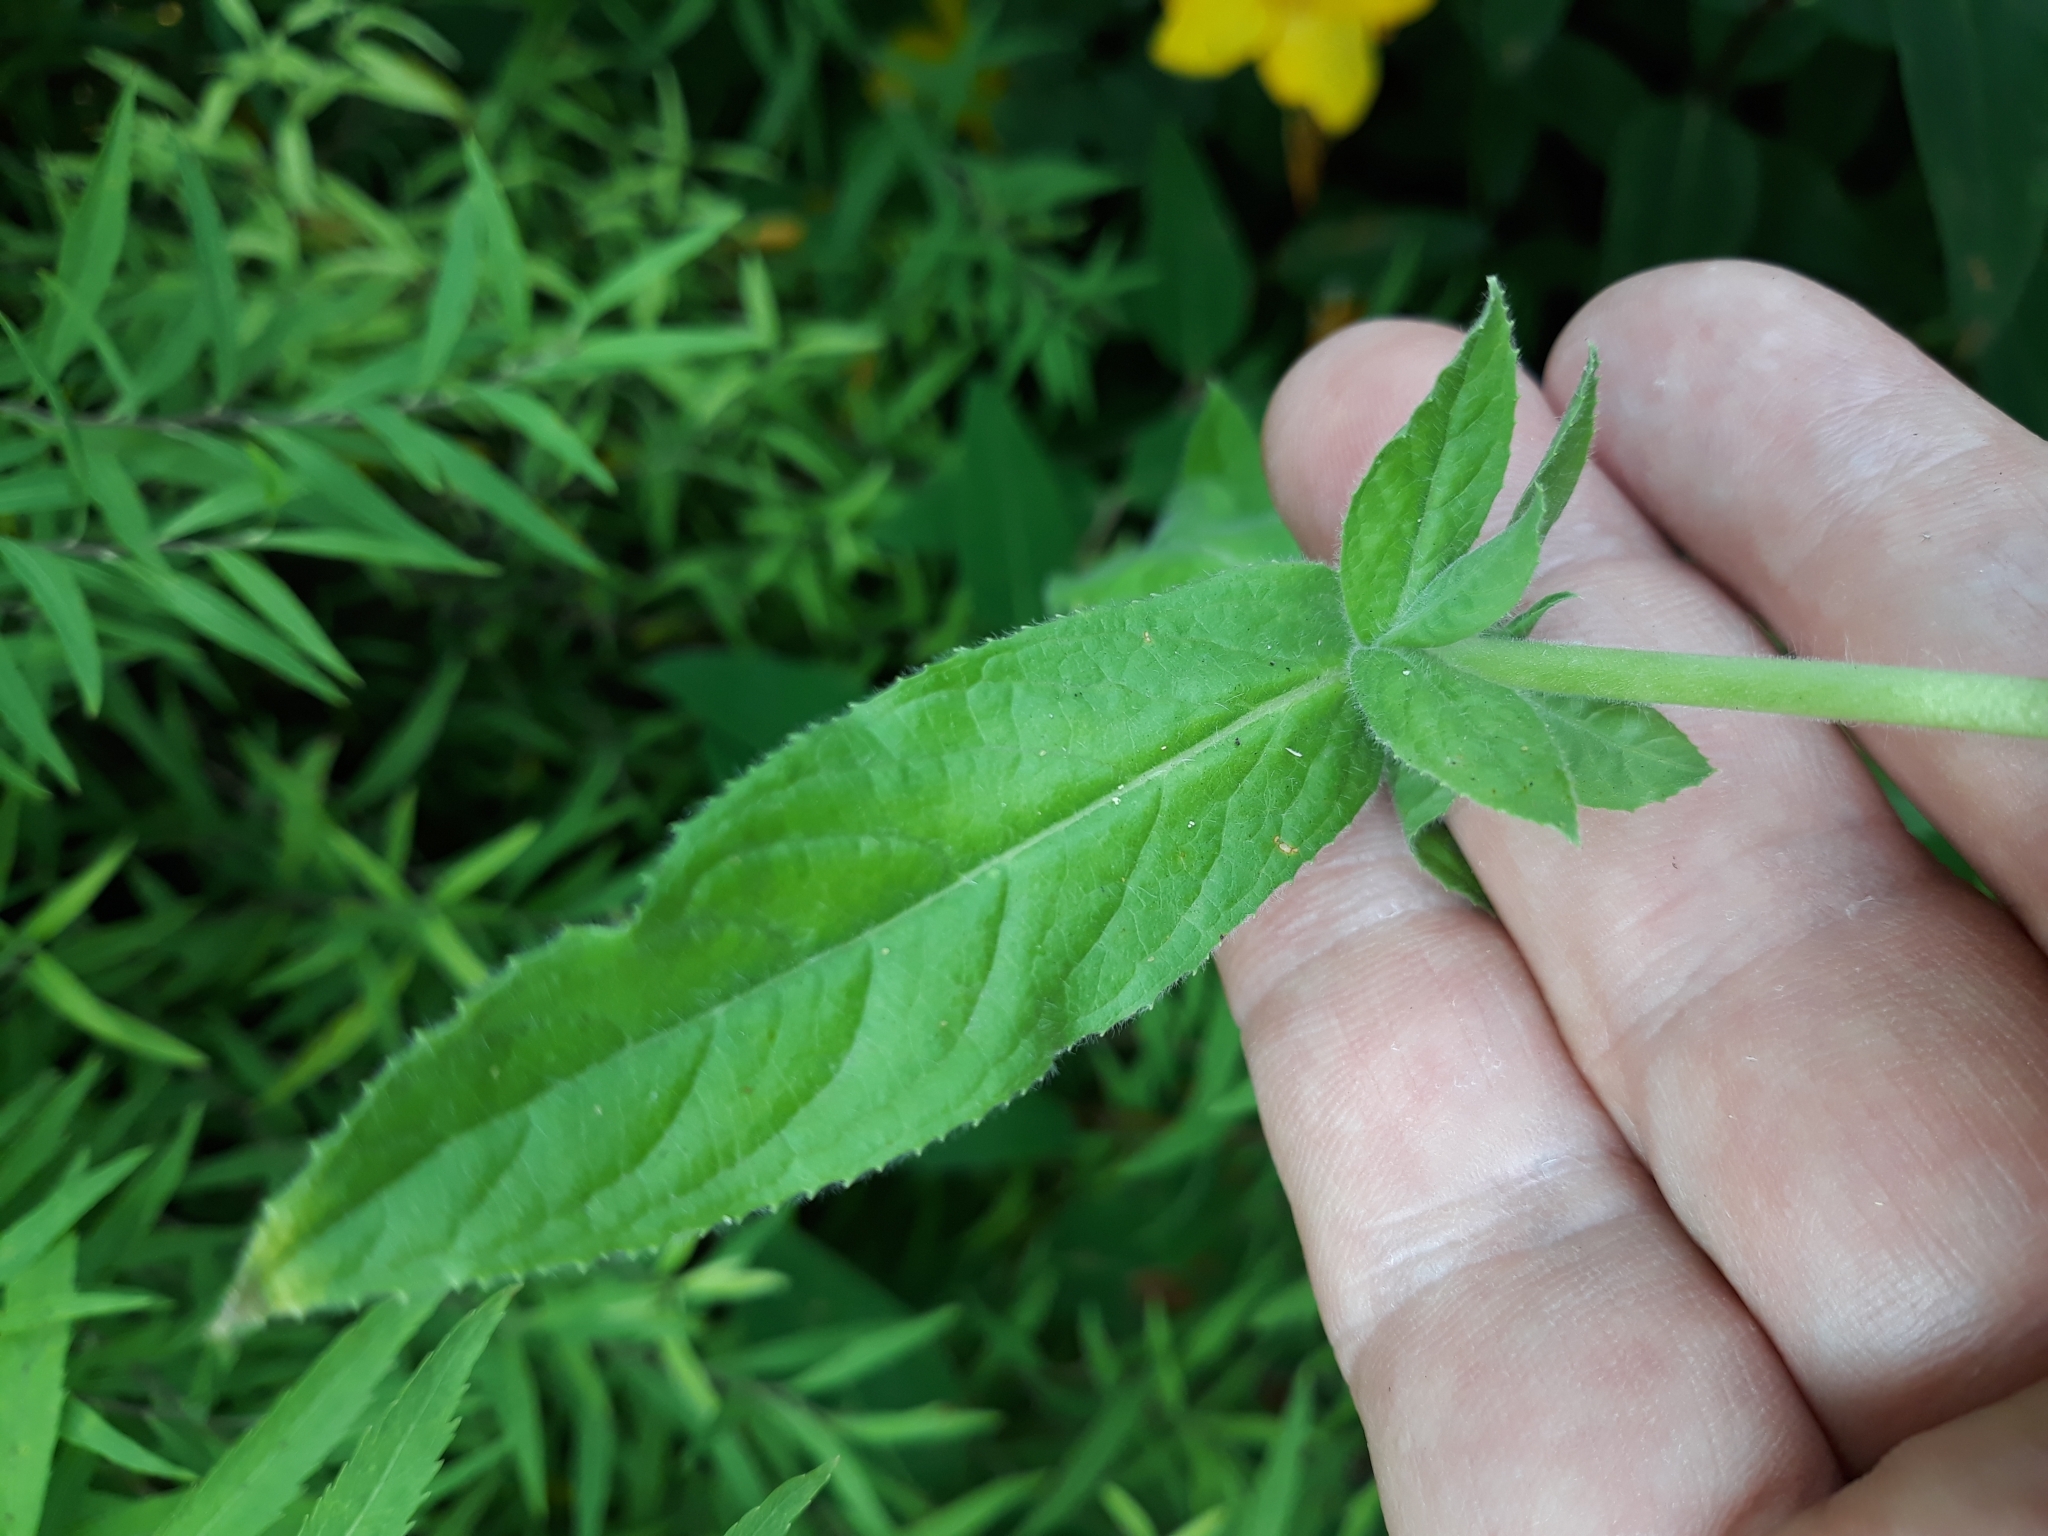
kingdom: Plantae
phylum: Tracheophyta
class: Magnoliopsida
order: Myrtales
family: Onagraceae
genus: Epilobium
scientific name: Epilobium hirsutum
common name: Great willowherb
